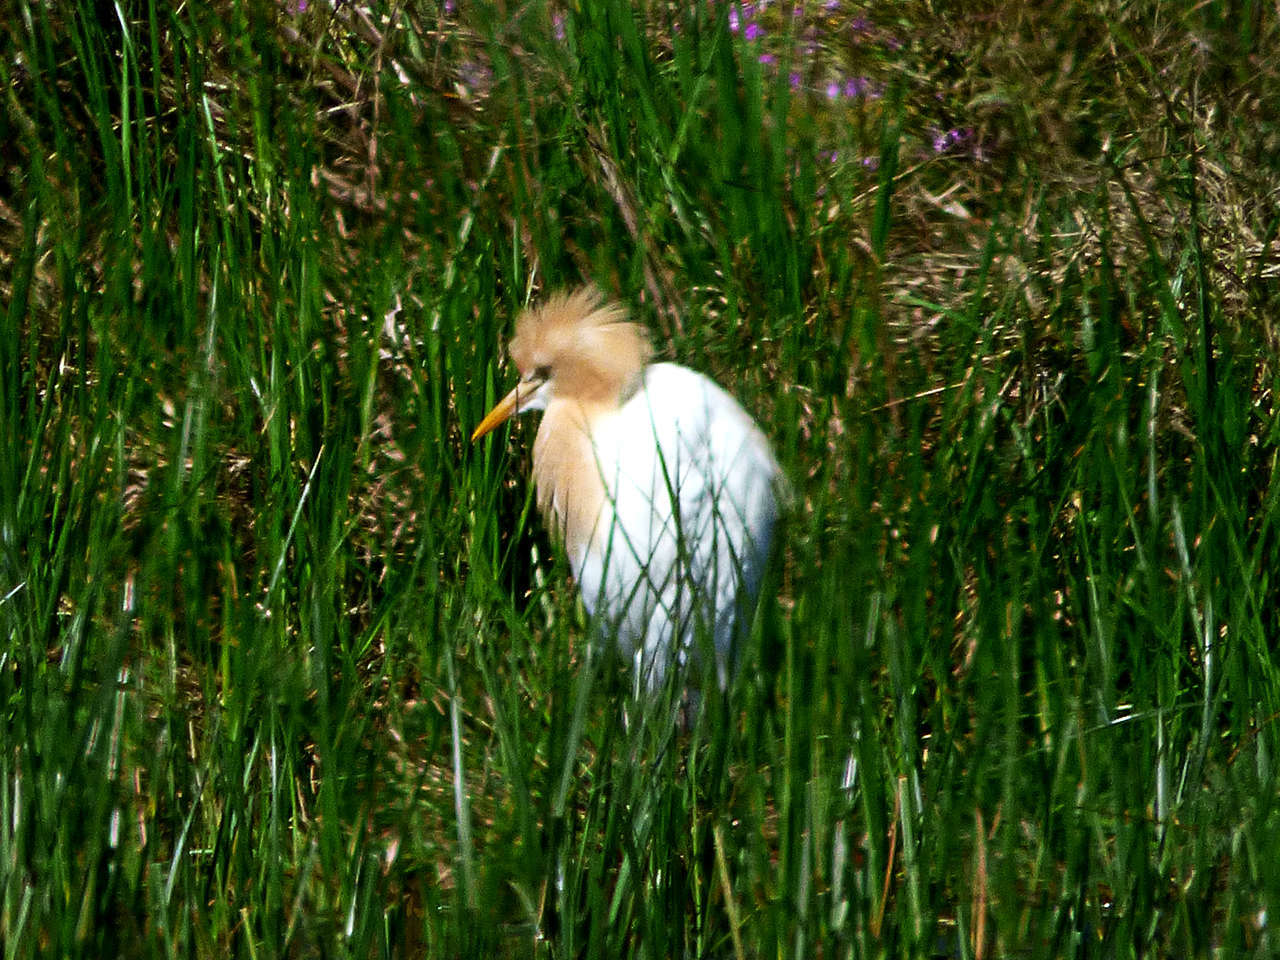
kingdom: Animalia
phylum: Chordata
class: Aves
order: Pelecaniformes
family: Ardeidae
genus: Bubulcus
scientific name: Bubulcus coromandus
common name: Eastern cattle egret
